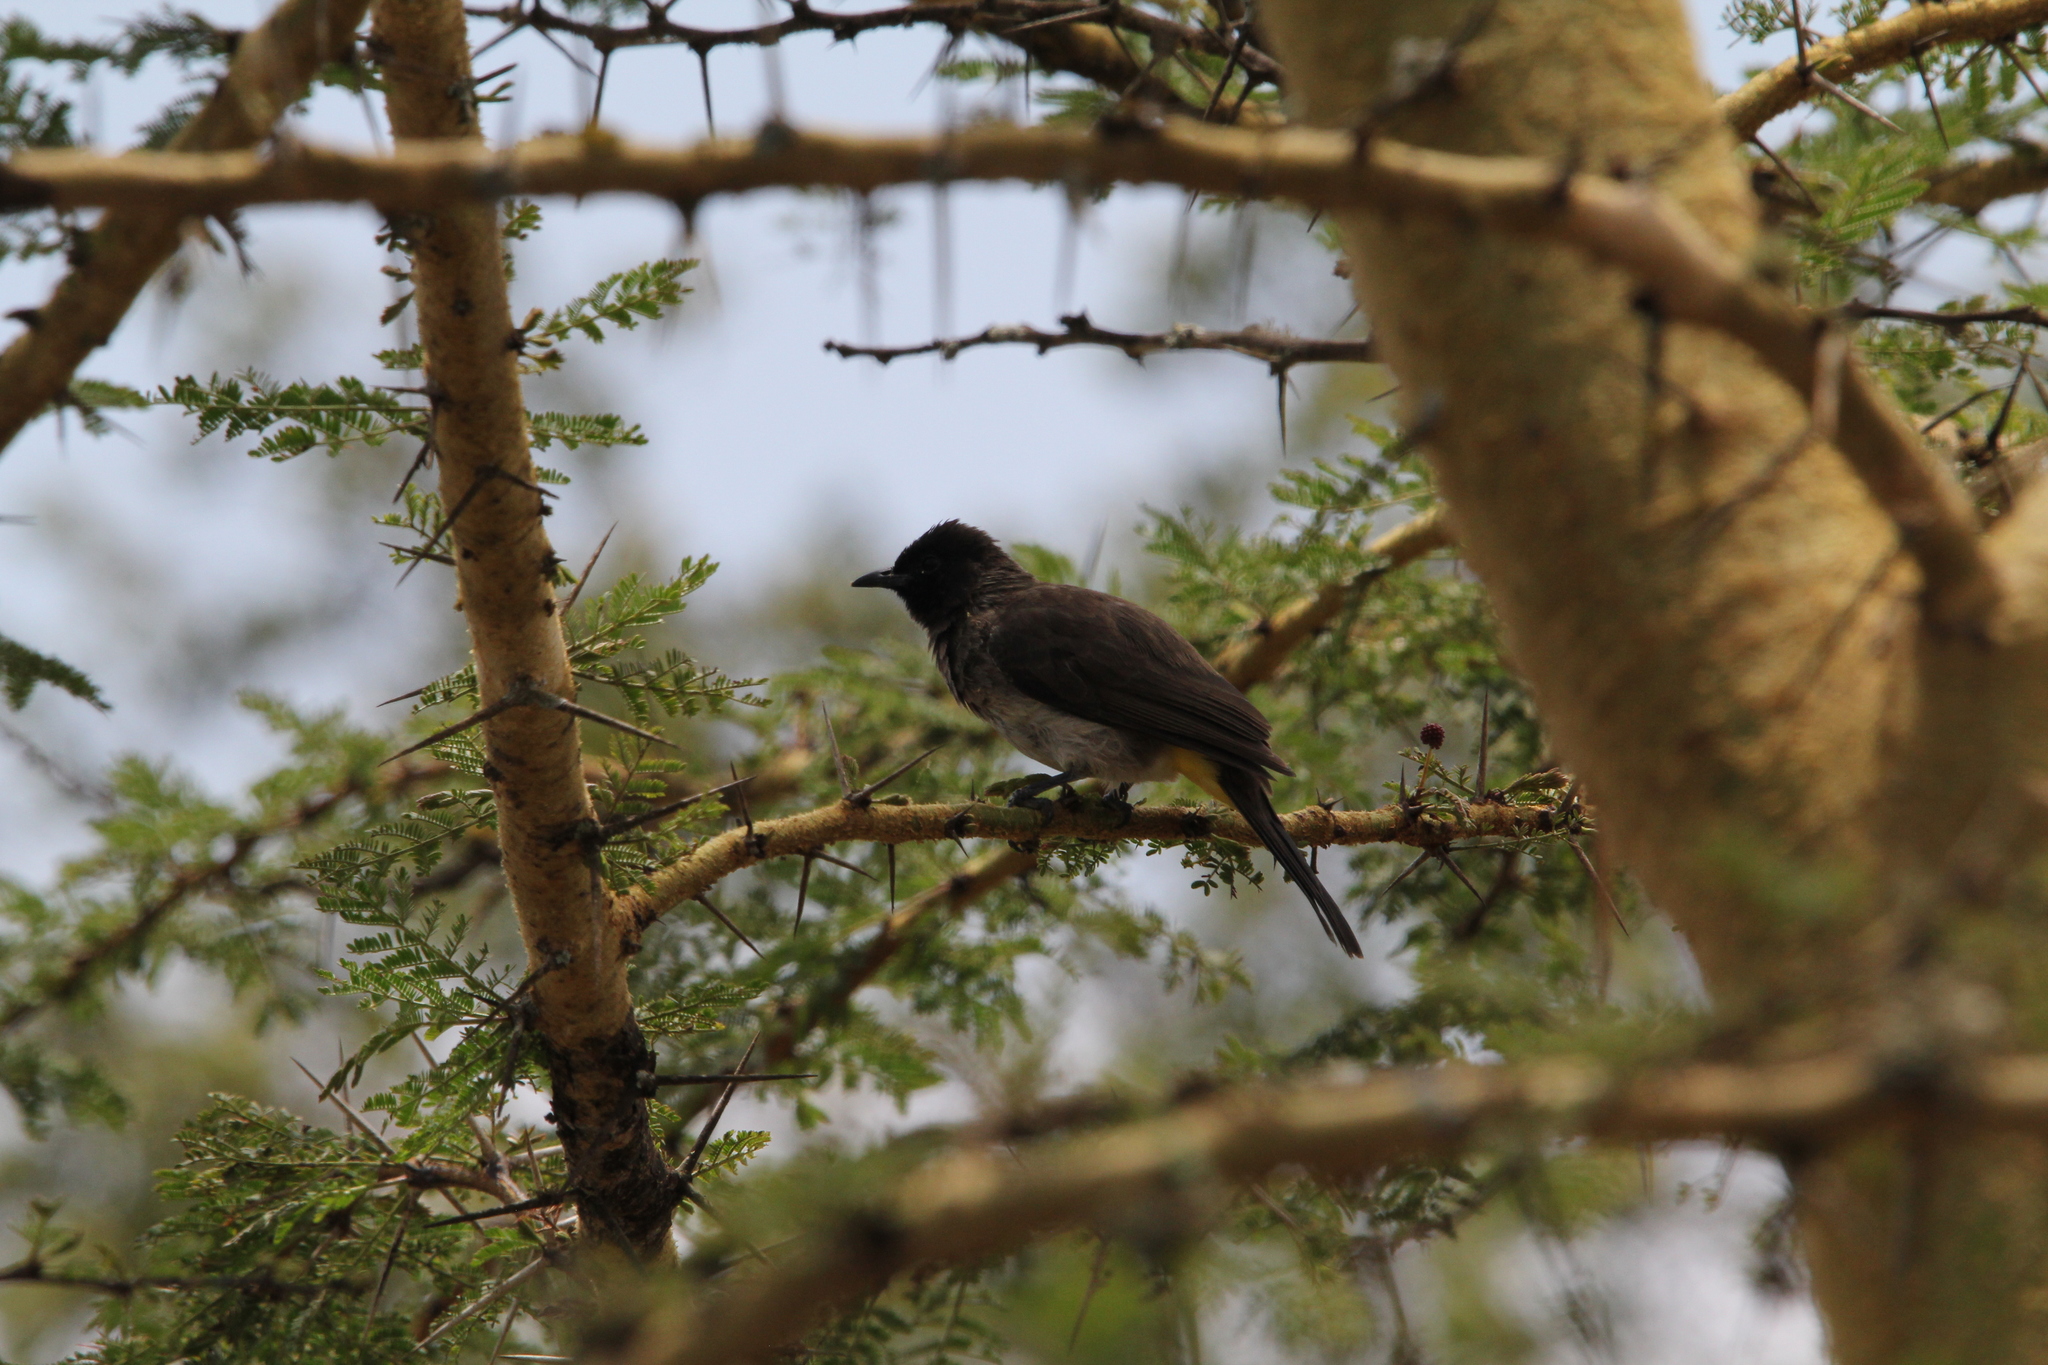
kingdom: Animalia
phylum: Chordata
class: Aves
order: Passeriformes
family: Pycnonotidae
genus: Pycnonotus
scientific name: Pycnonotus barbatus
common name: Common bulbul
